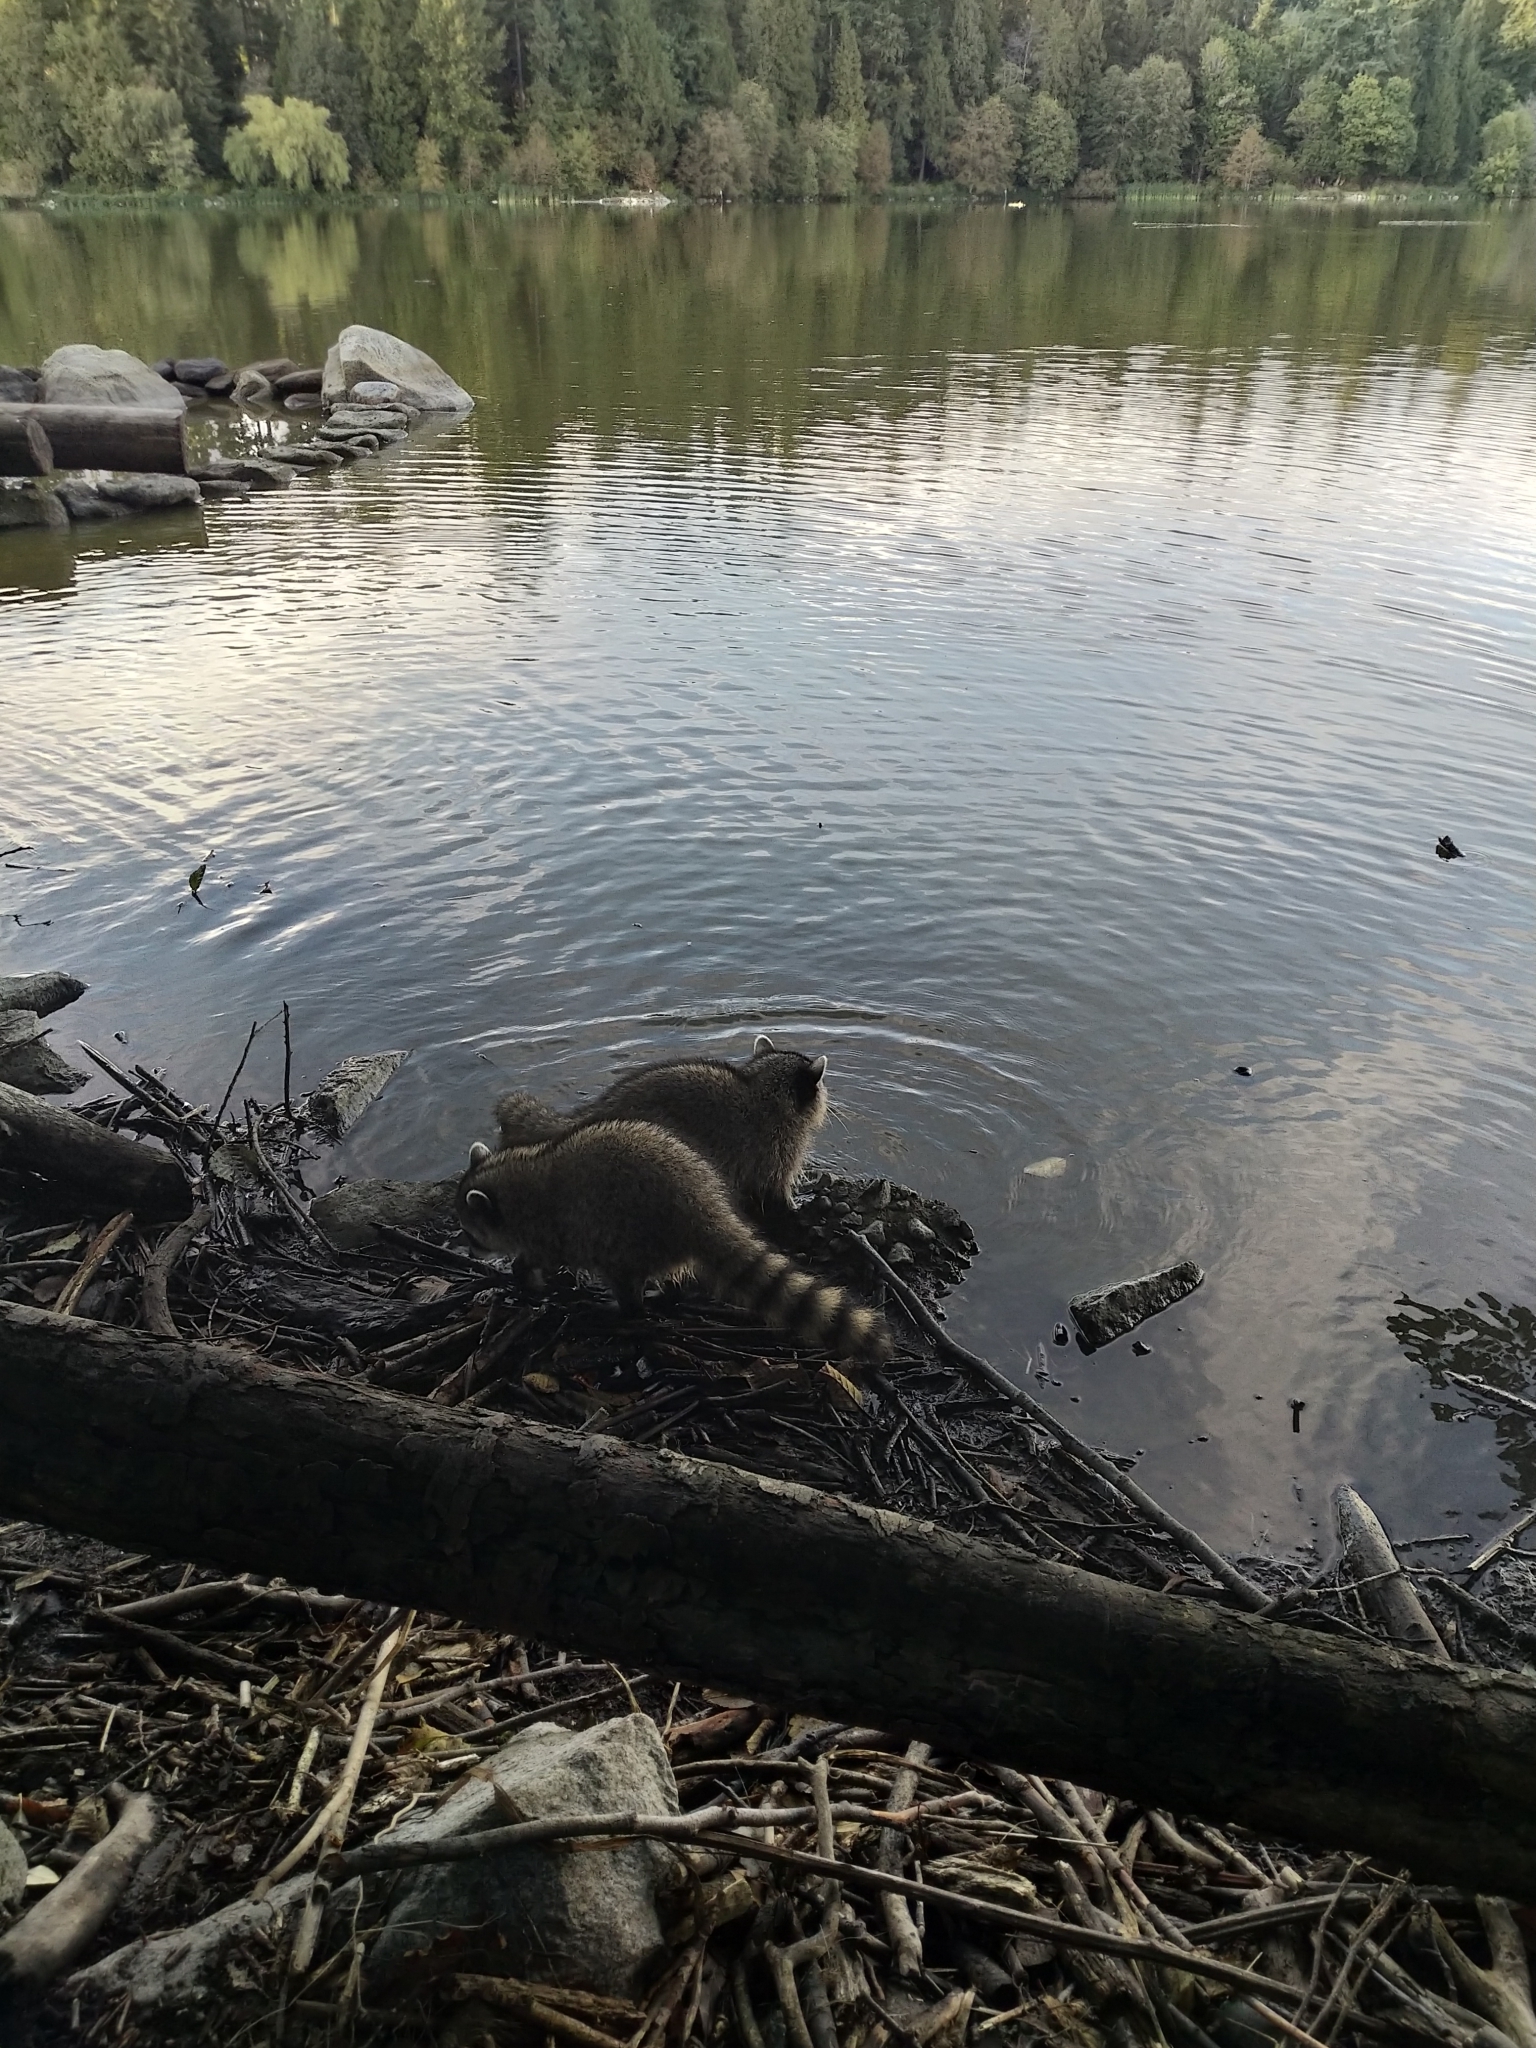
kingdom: Animalia
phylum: Chordata
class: Mammalia
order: Carnivora
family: Procyonidae
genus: Procyon
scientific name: Procyon lotor
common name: Raccoon
